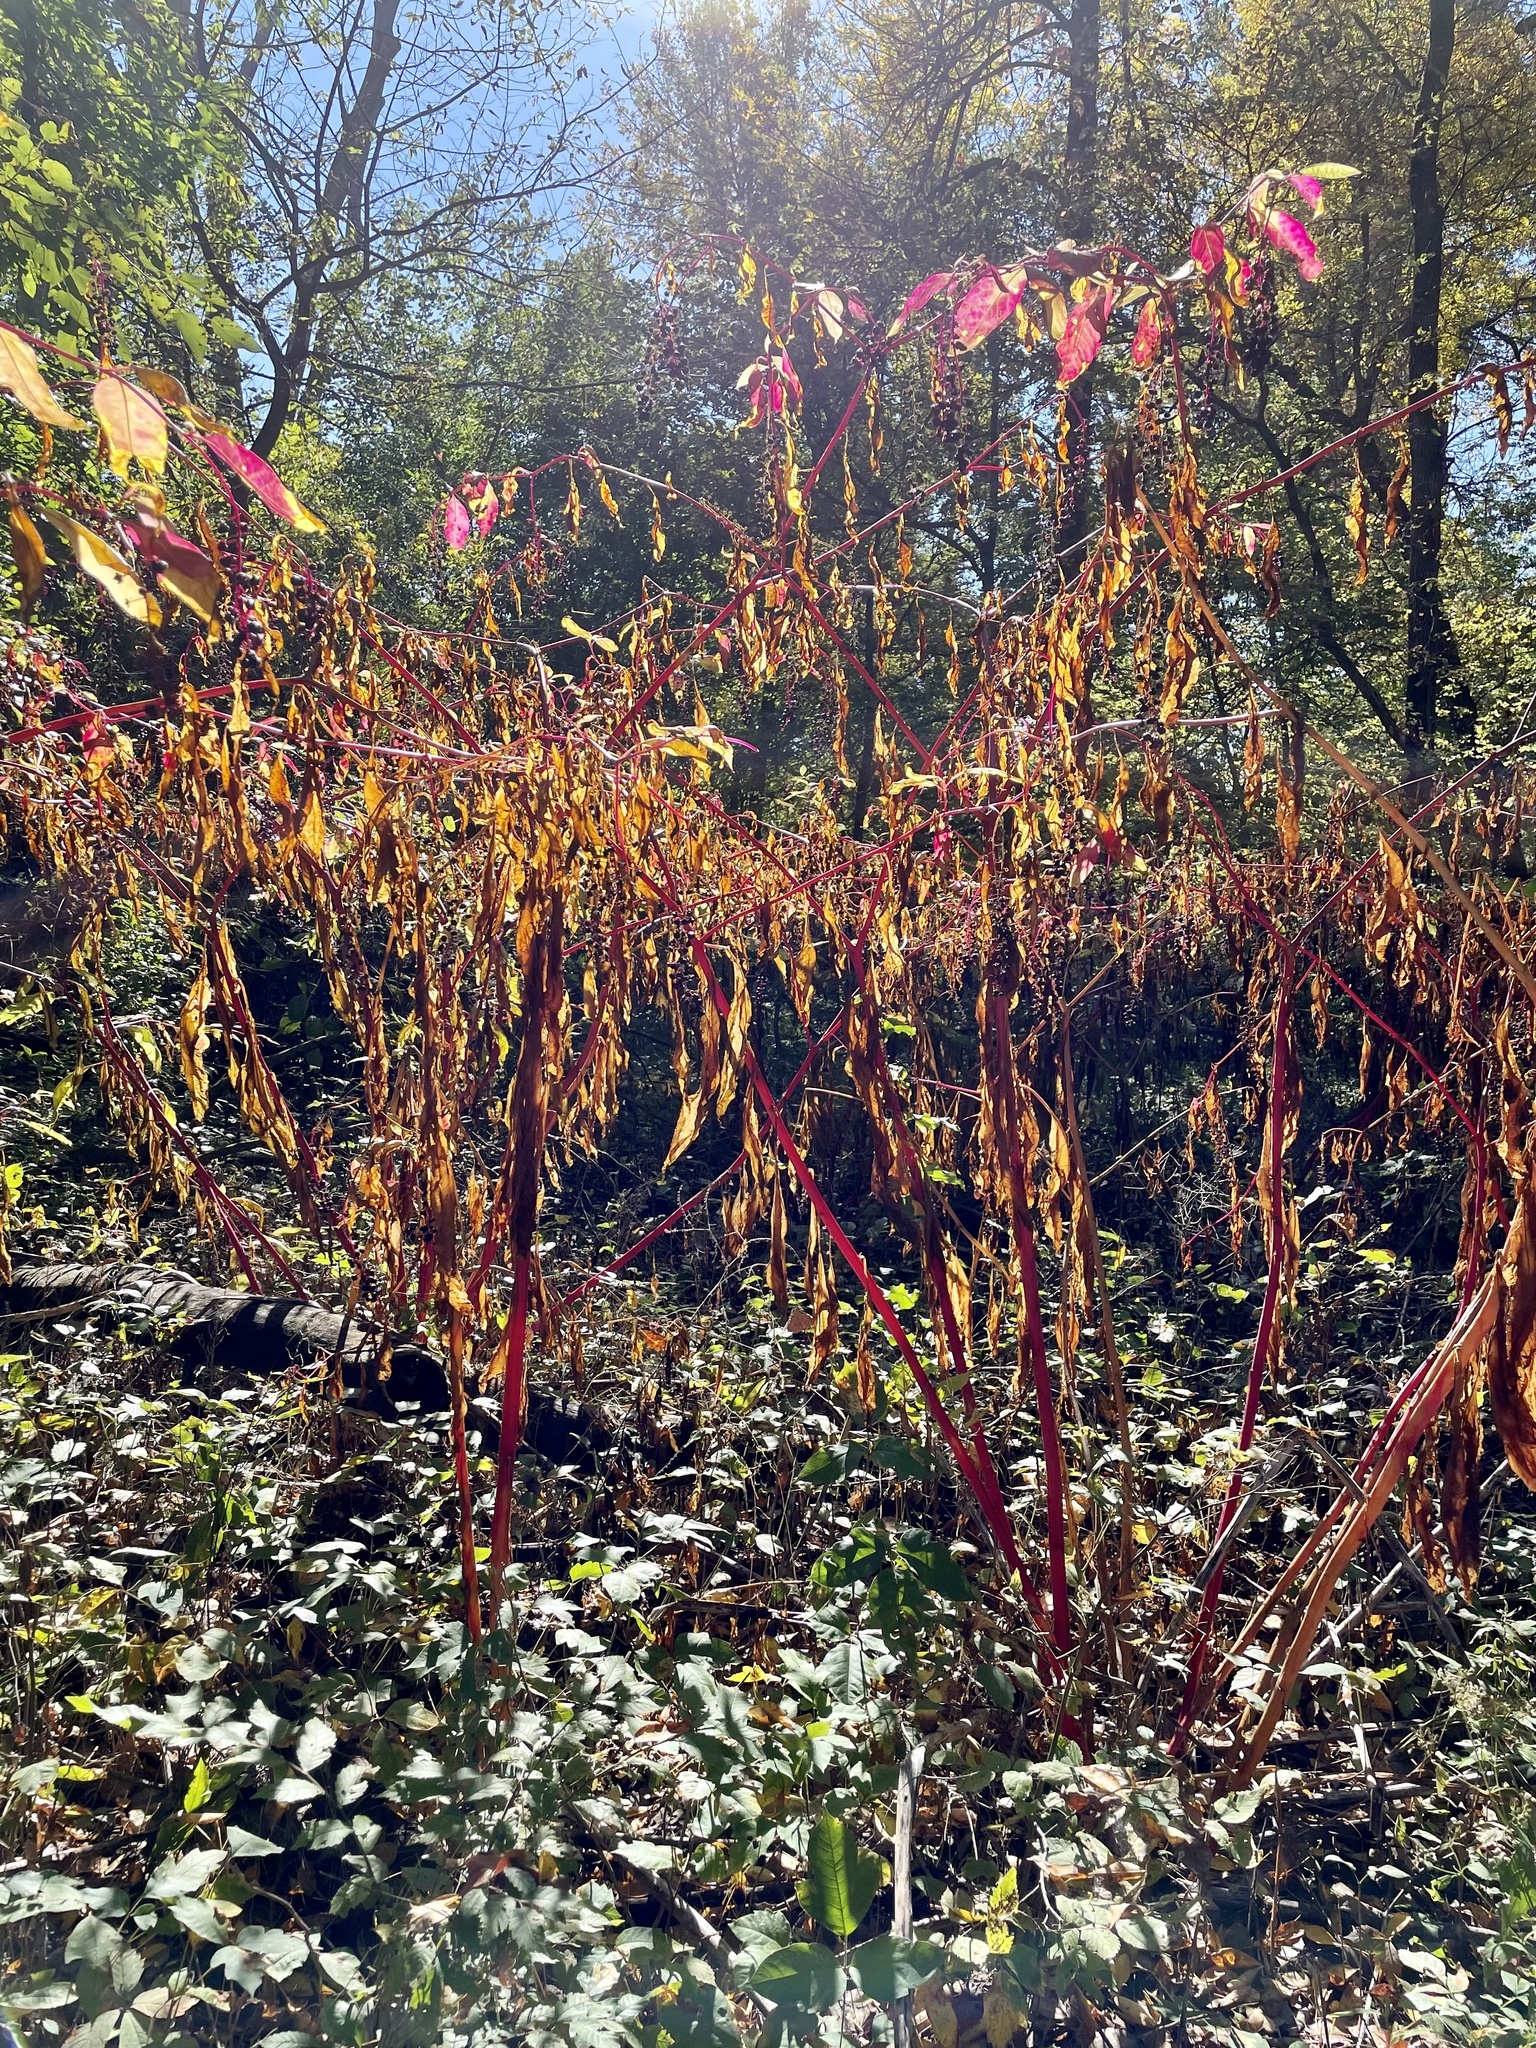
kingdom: Plantae
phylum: Tracheophyta
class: Magnoliopsida
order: Caryophyllales
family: Phytolaccaceae
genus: Phytolacca
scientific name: Phytolacca americana
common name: American pokeweed
